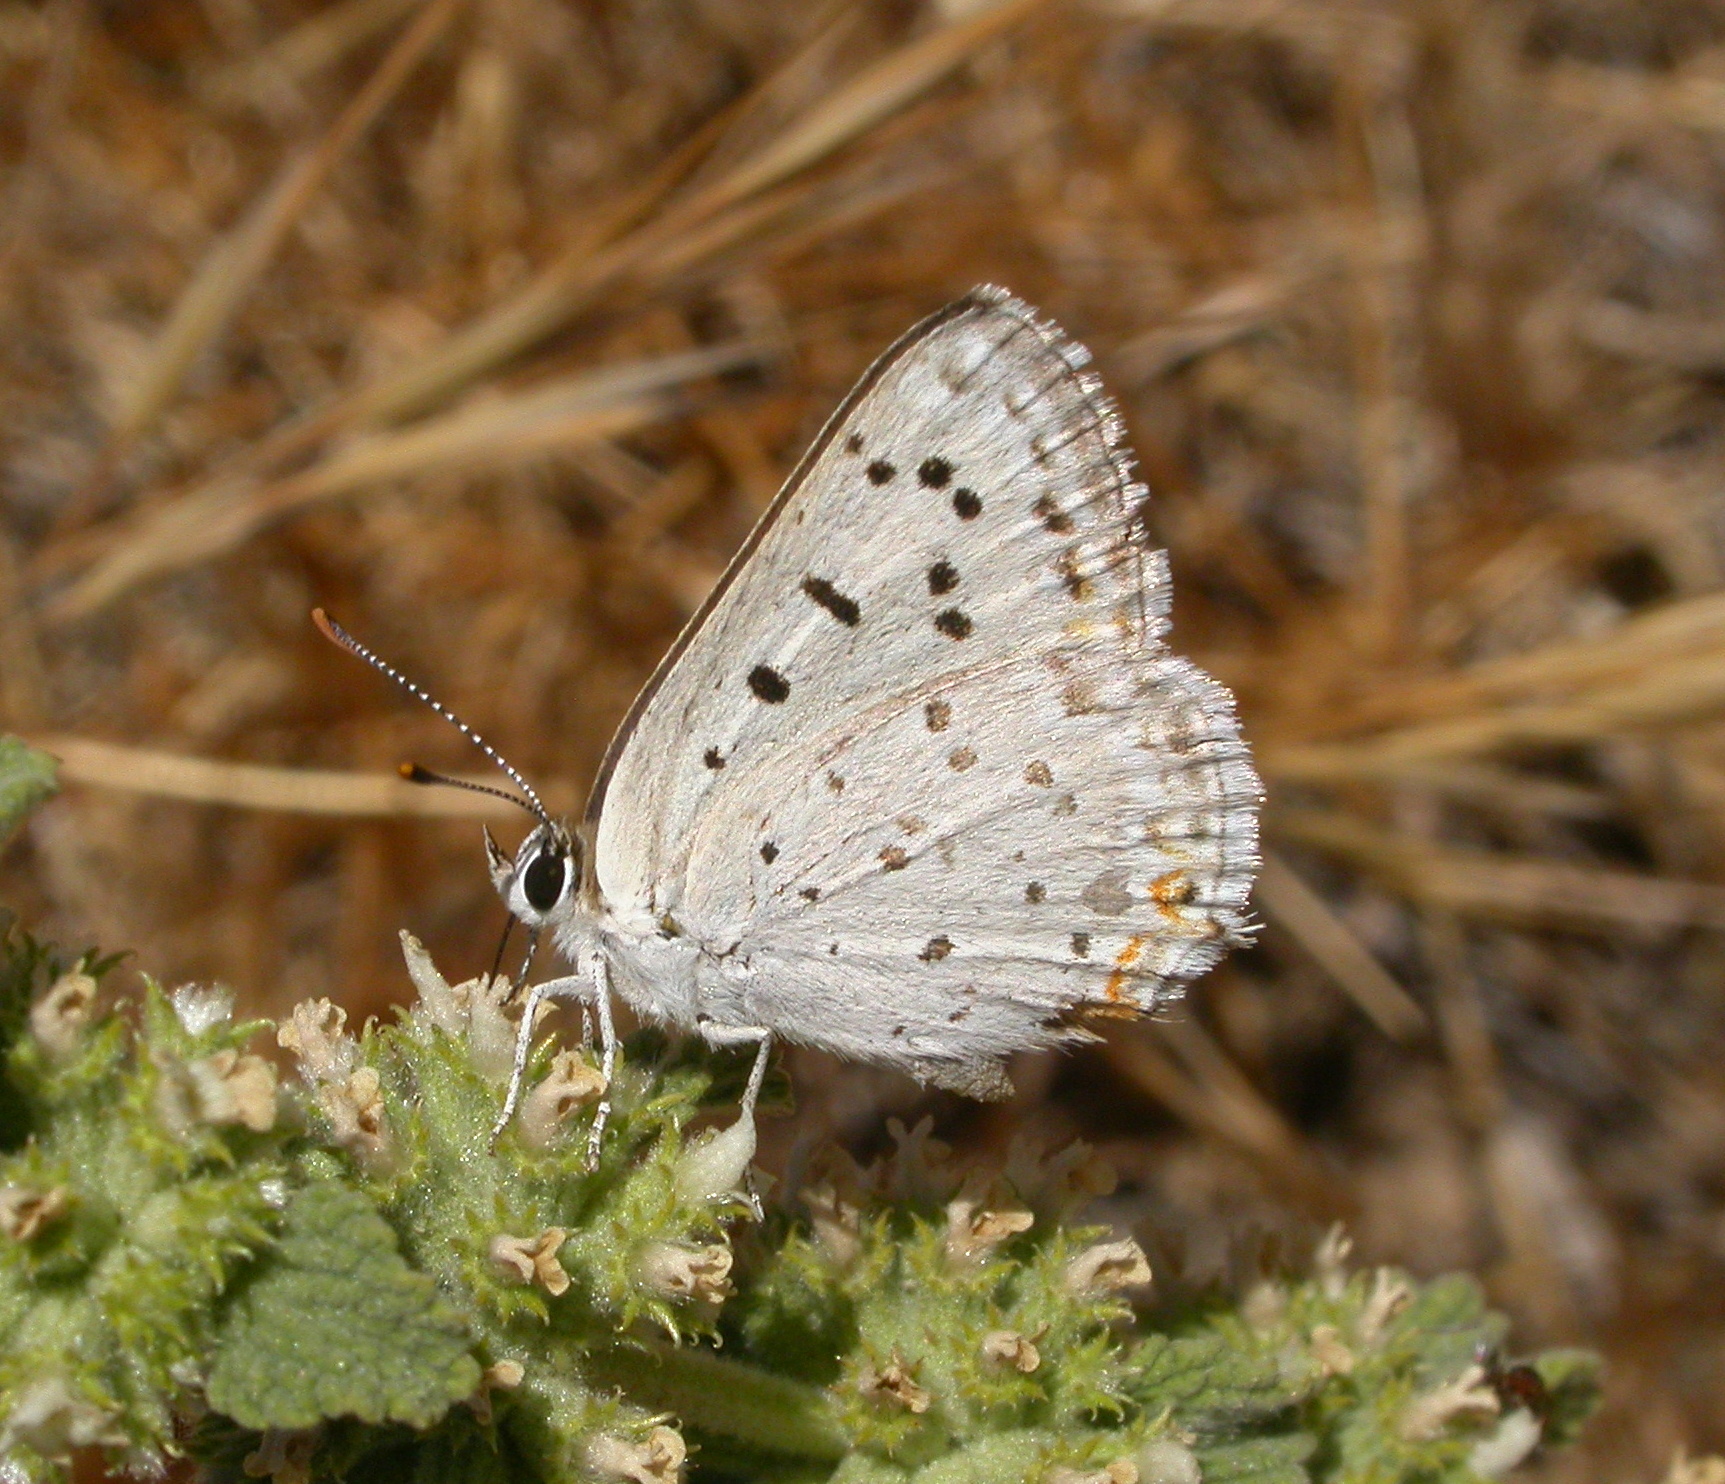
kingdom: Animalia
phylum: Arthropoda
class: Insecta
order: Lepidoptera
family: Lycaenidae
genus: Tharsalea
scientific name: Tharsalea xanthoides
